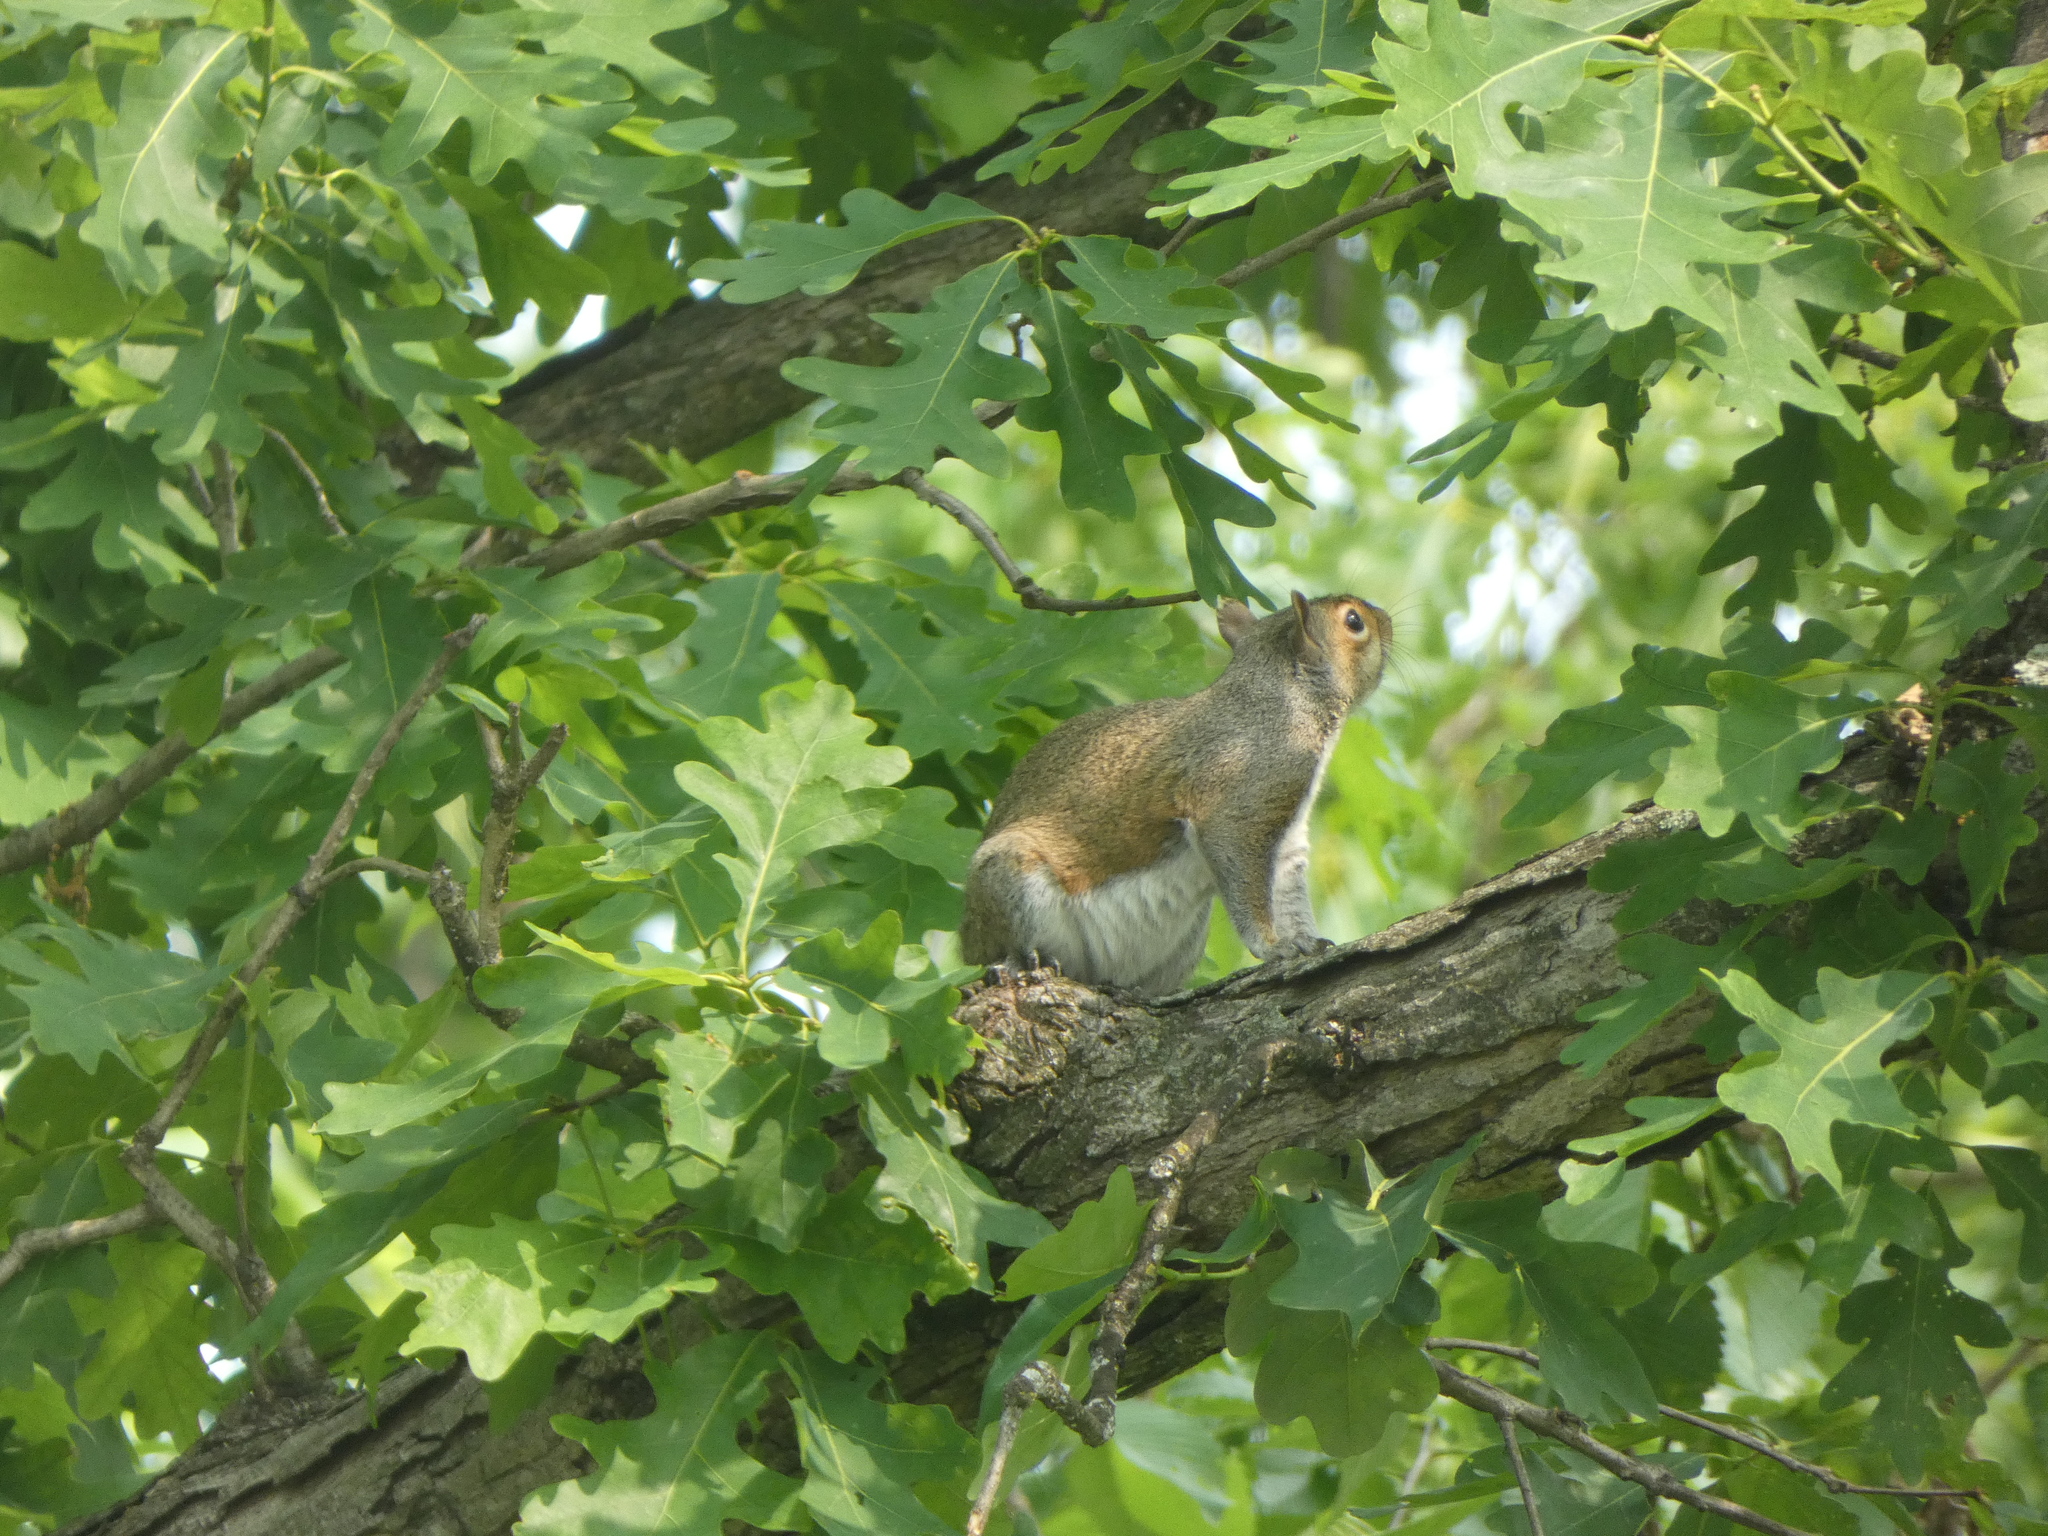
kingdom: Animalia
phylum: Chordata
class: Mammalia
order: Rodentia
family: Sciuridae
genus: Sciurus
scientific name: Sciurus carolinensis
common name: Eastern gray squirrel
